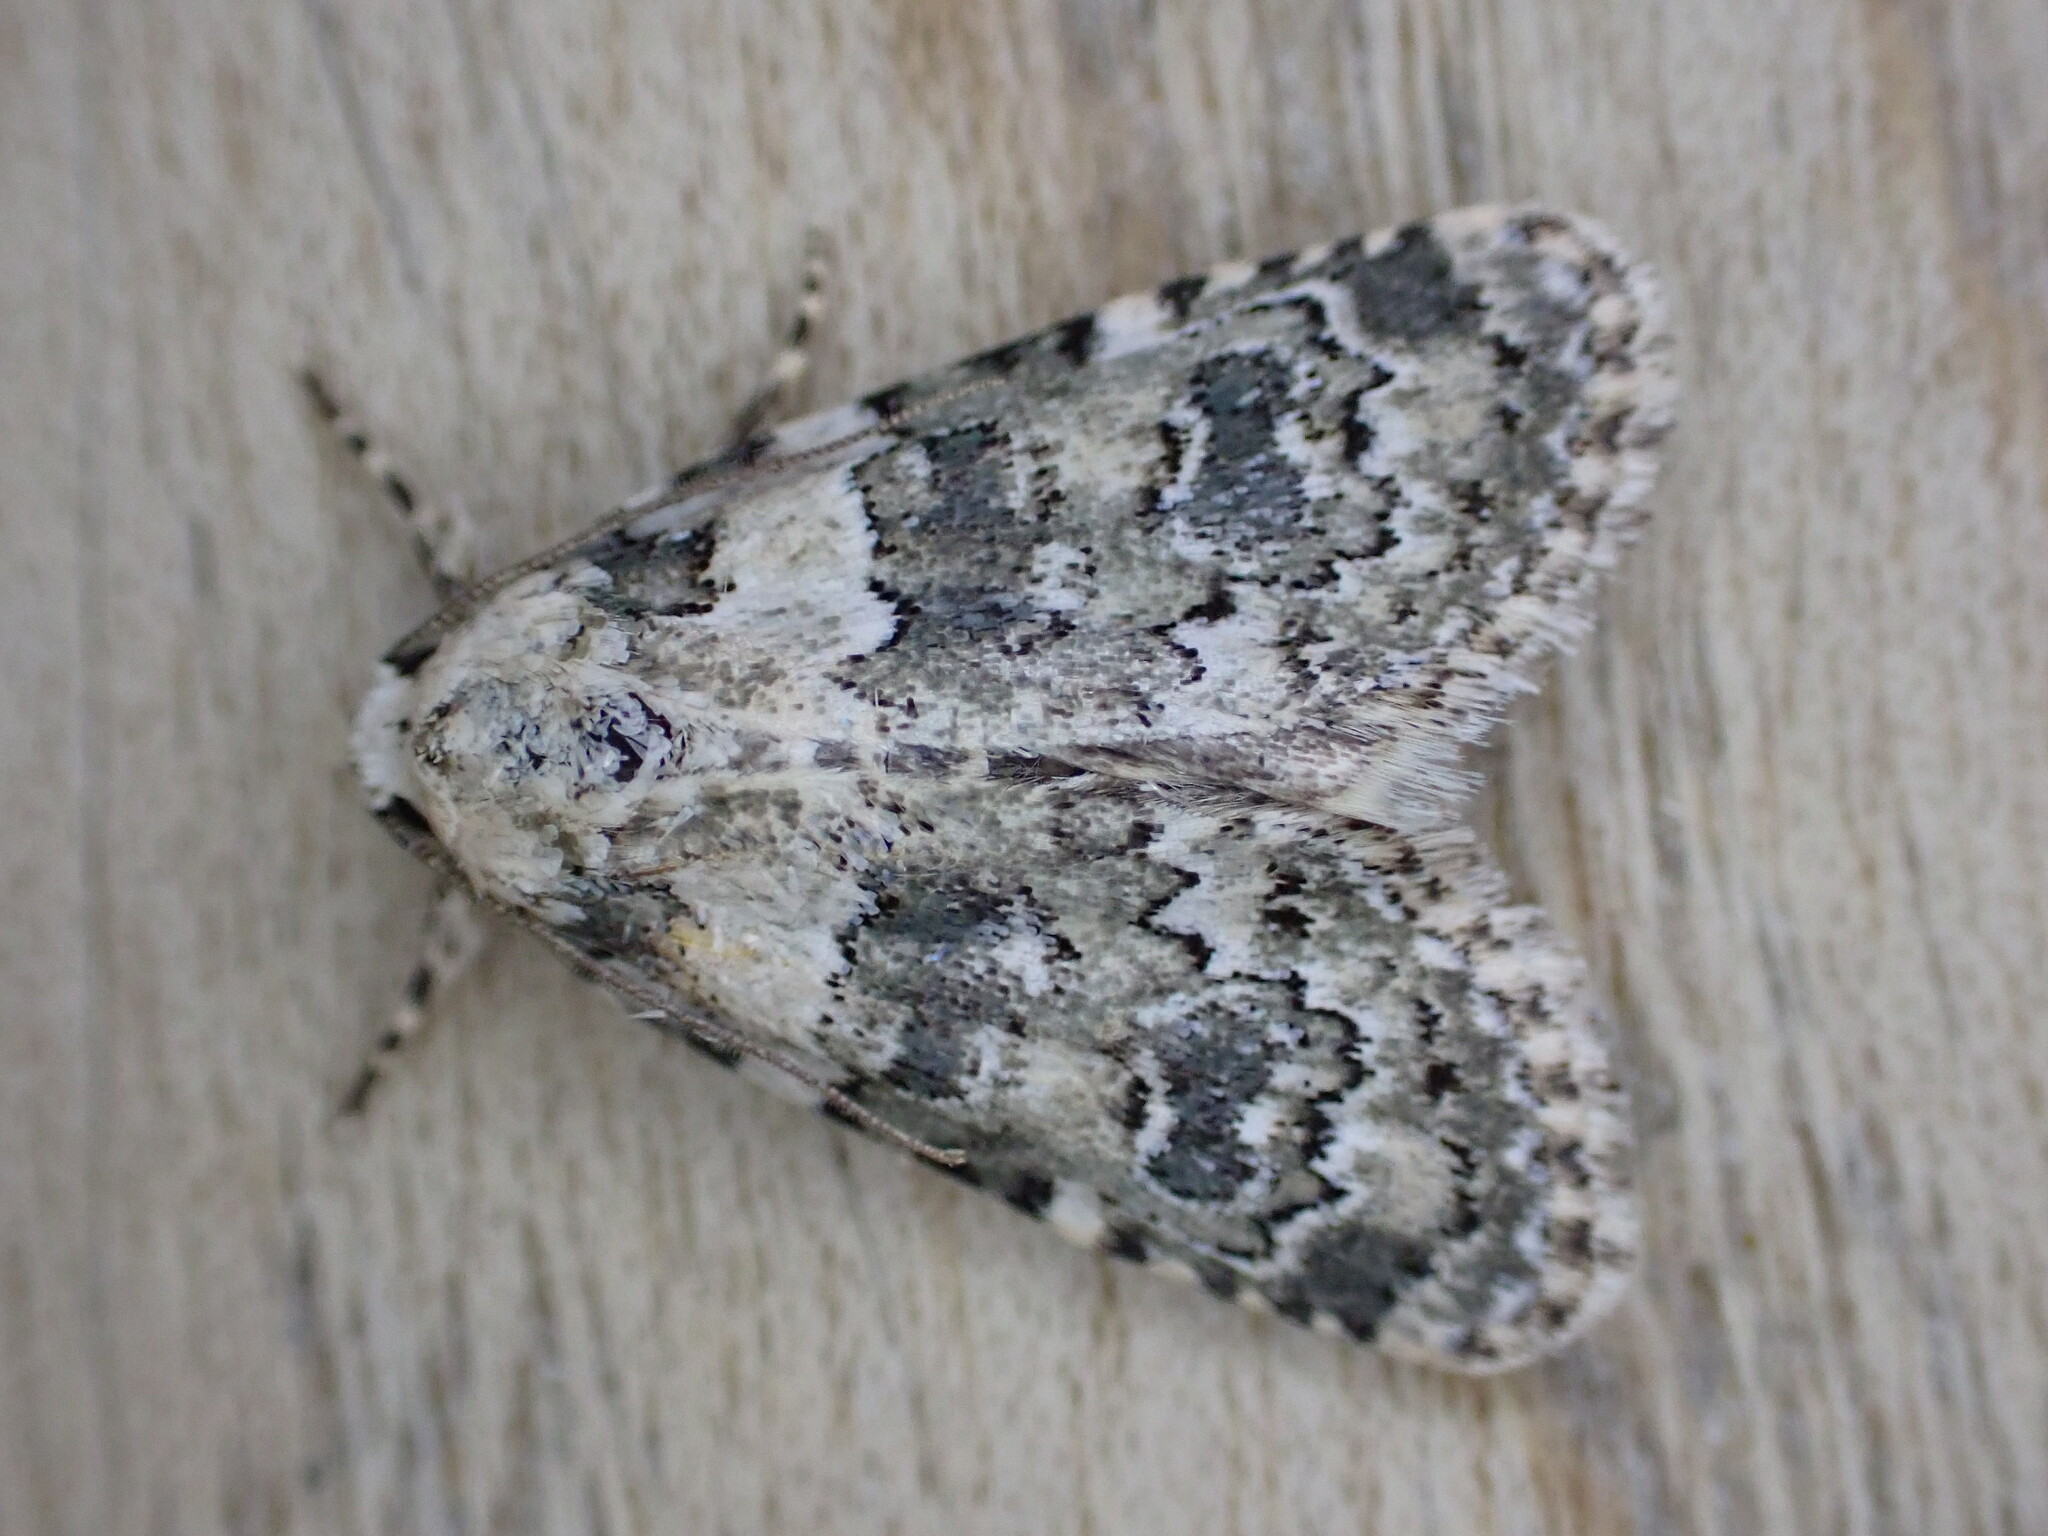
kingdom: Animalia
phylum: Arthropoda
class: Insecta
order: Lepidoptera
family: Noctuidae
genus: Bryophila
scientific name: Bryophila domestica
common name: Marbled beauty
